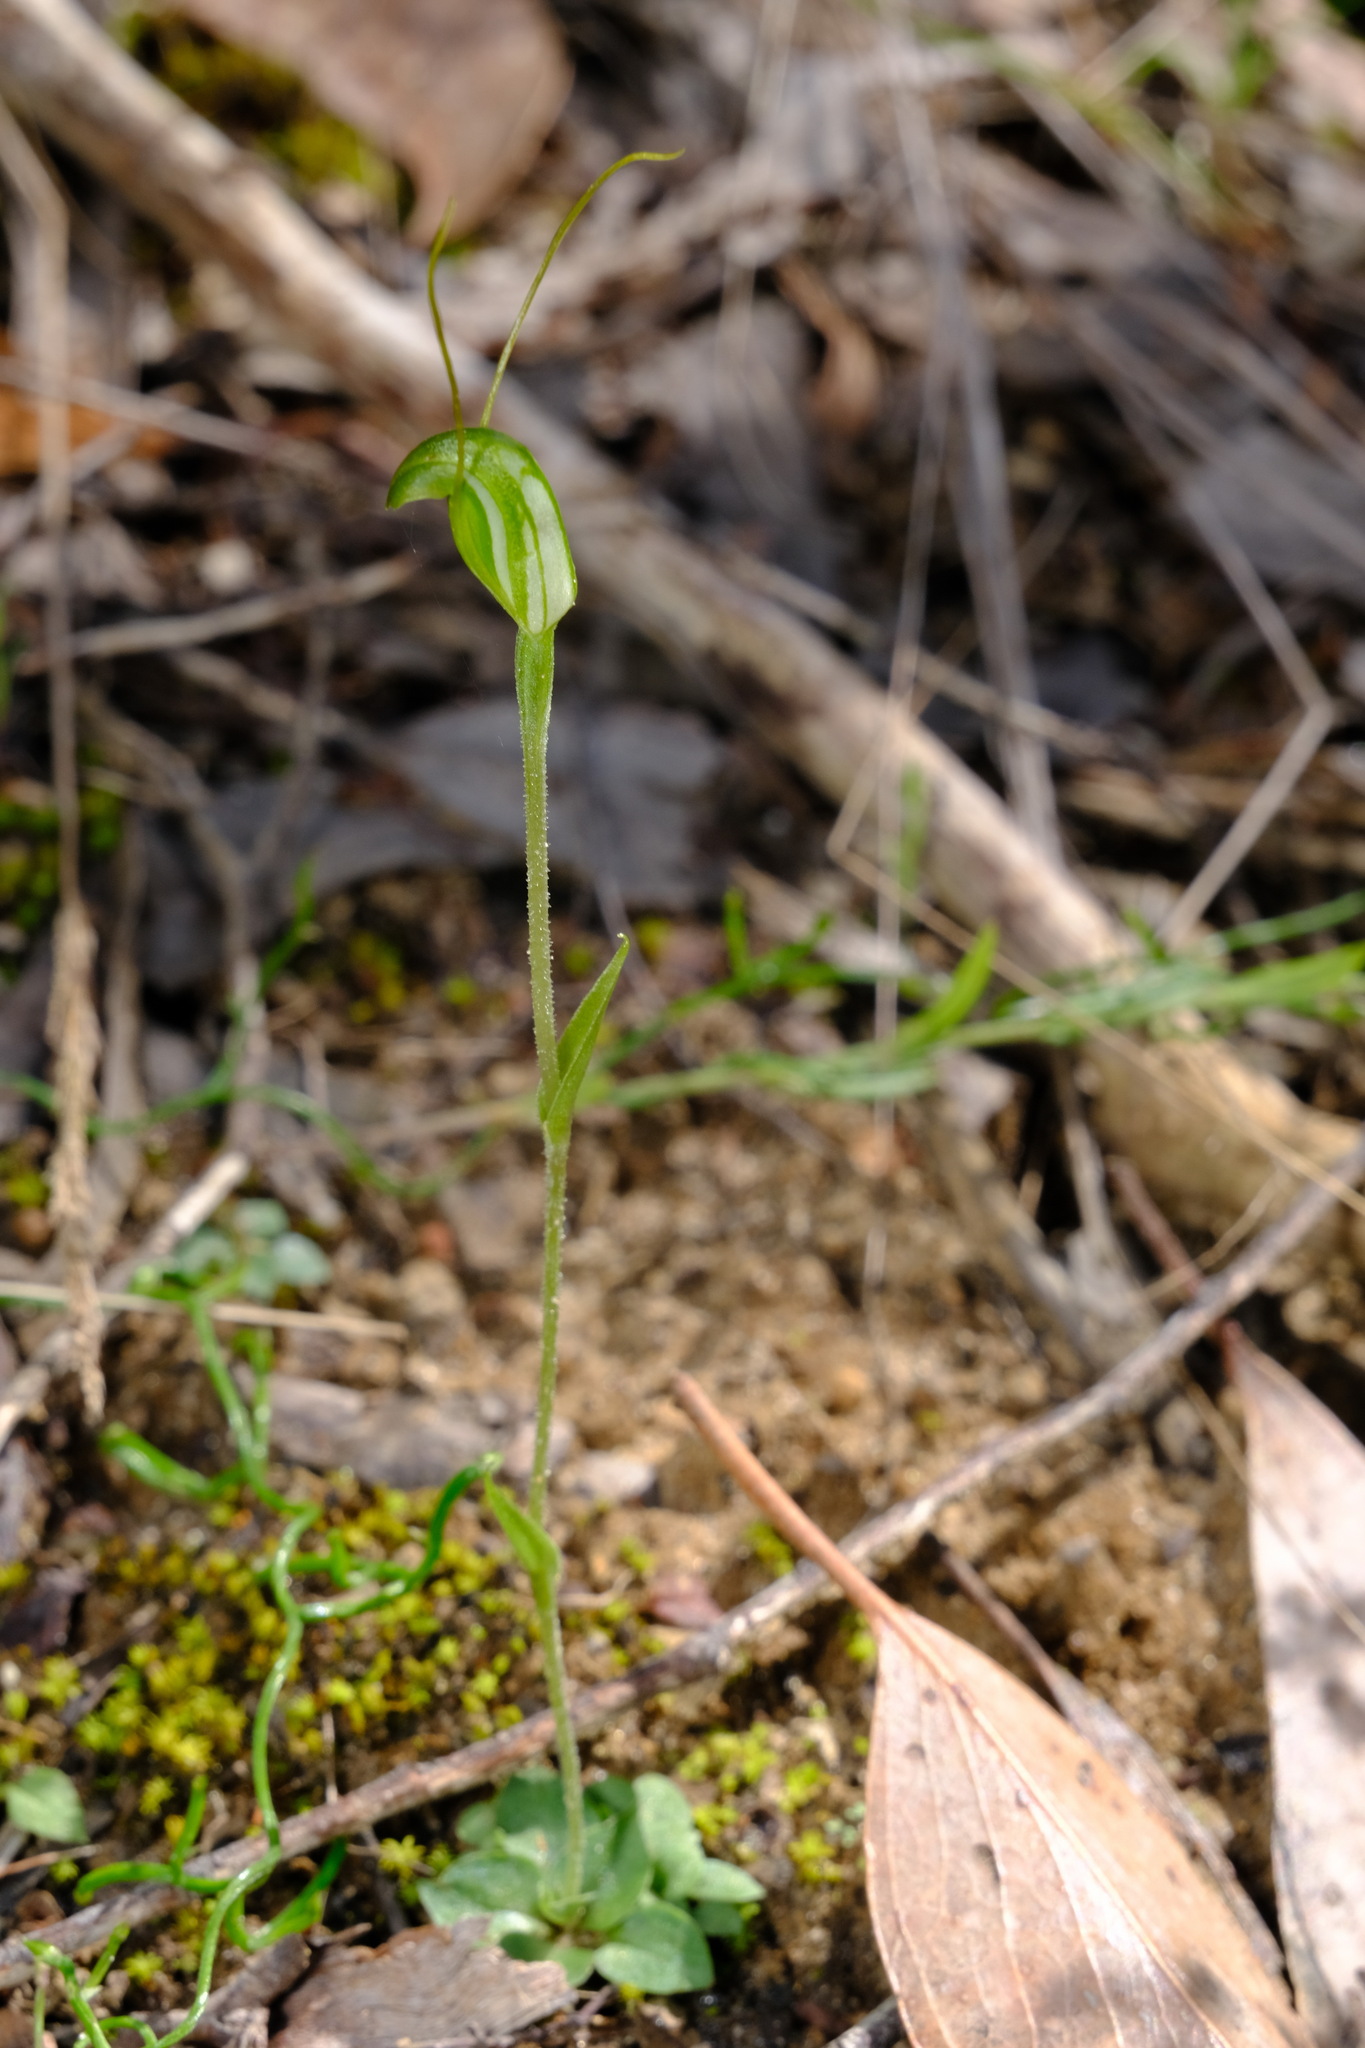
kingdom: Plantae
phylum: Tracheophyta
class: Liliopsida
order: Asparagales
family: Orchidaceae
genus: Pterostylis
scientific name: Pterostylis nana
